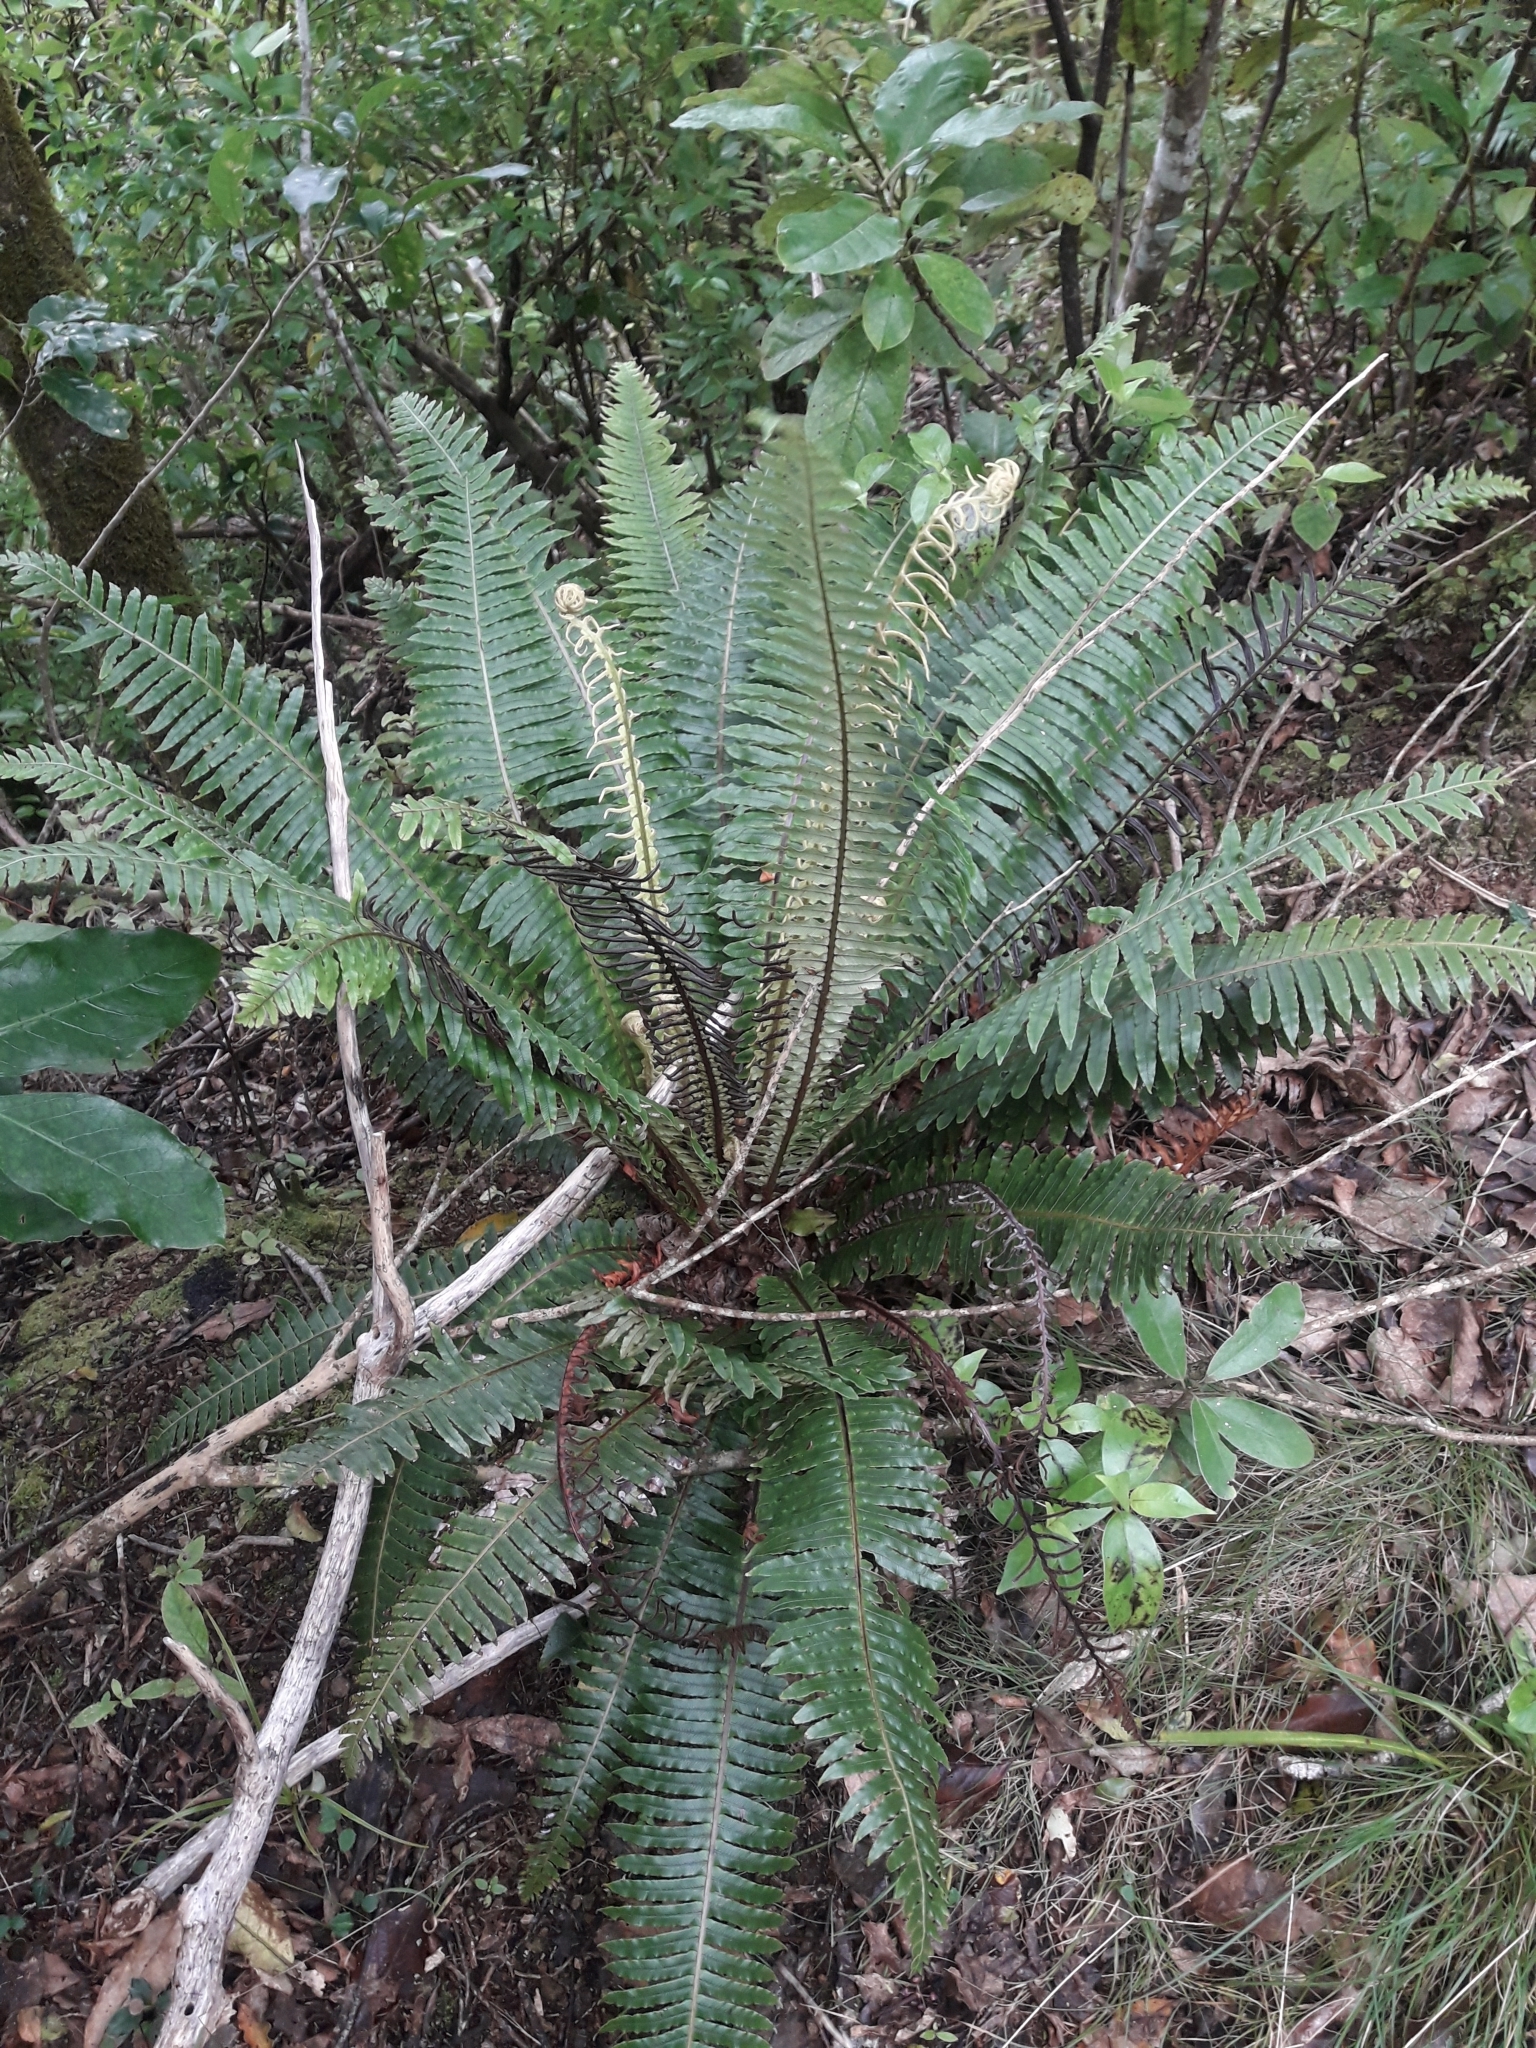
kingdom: Plantae
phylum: Tracheophyta
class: Polypodiopsida
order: Polypodiales
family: Blechnaceae
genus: Lomaria
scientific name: Lomaria discolor
